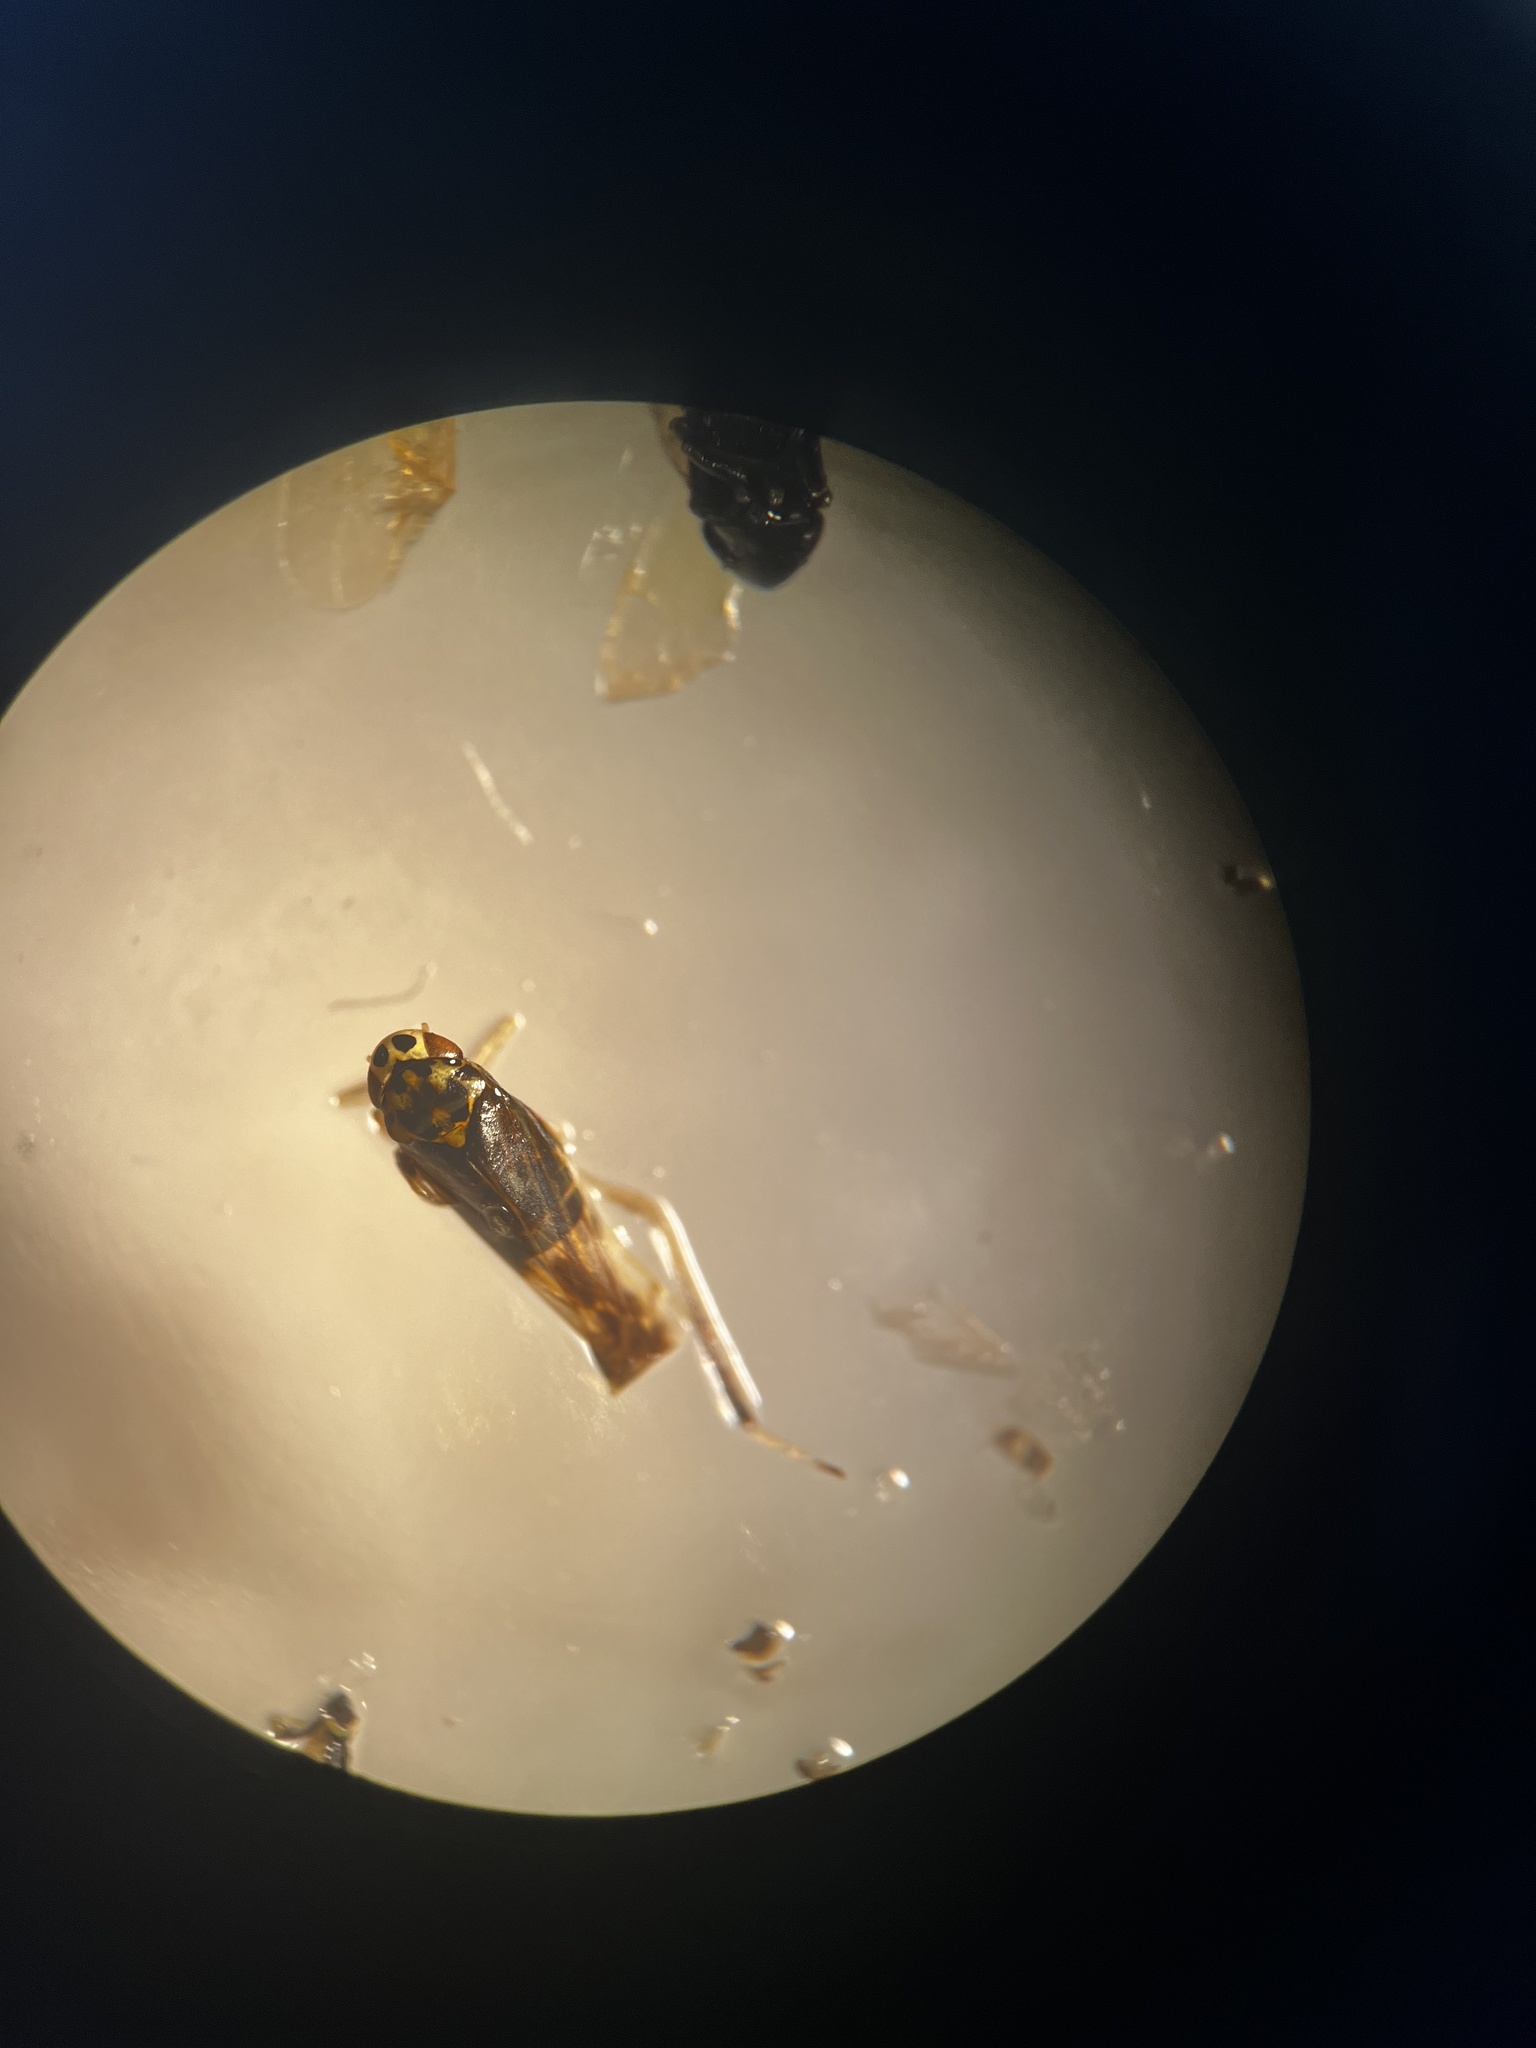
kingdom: Animalia
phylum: Arthropoda
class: Insecta
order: Hemiptera
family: Cicadellidae
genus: Eupteryx
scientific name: Eupteryx calcarata
